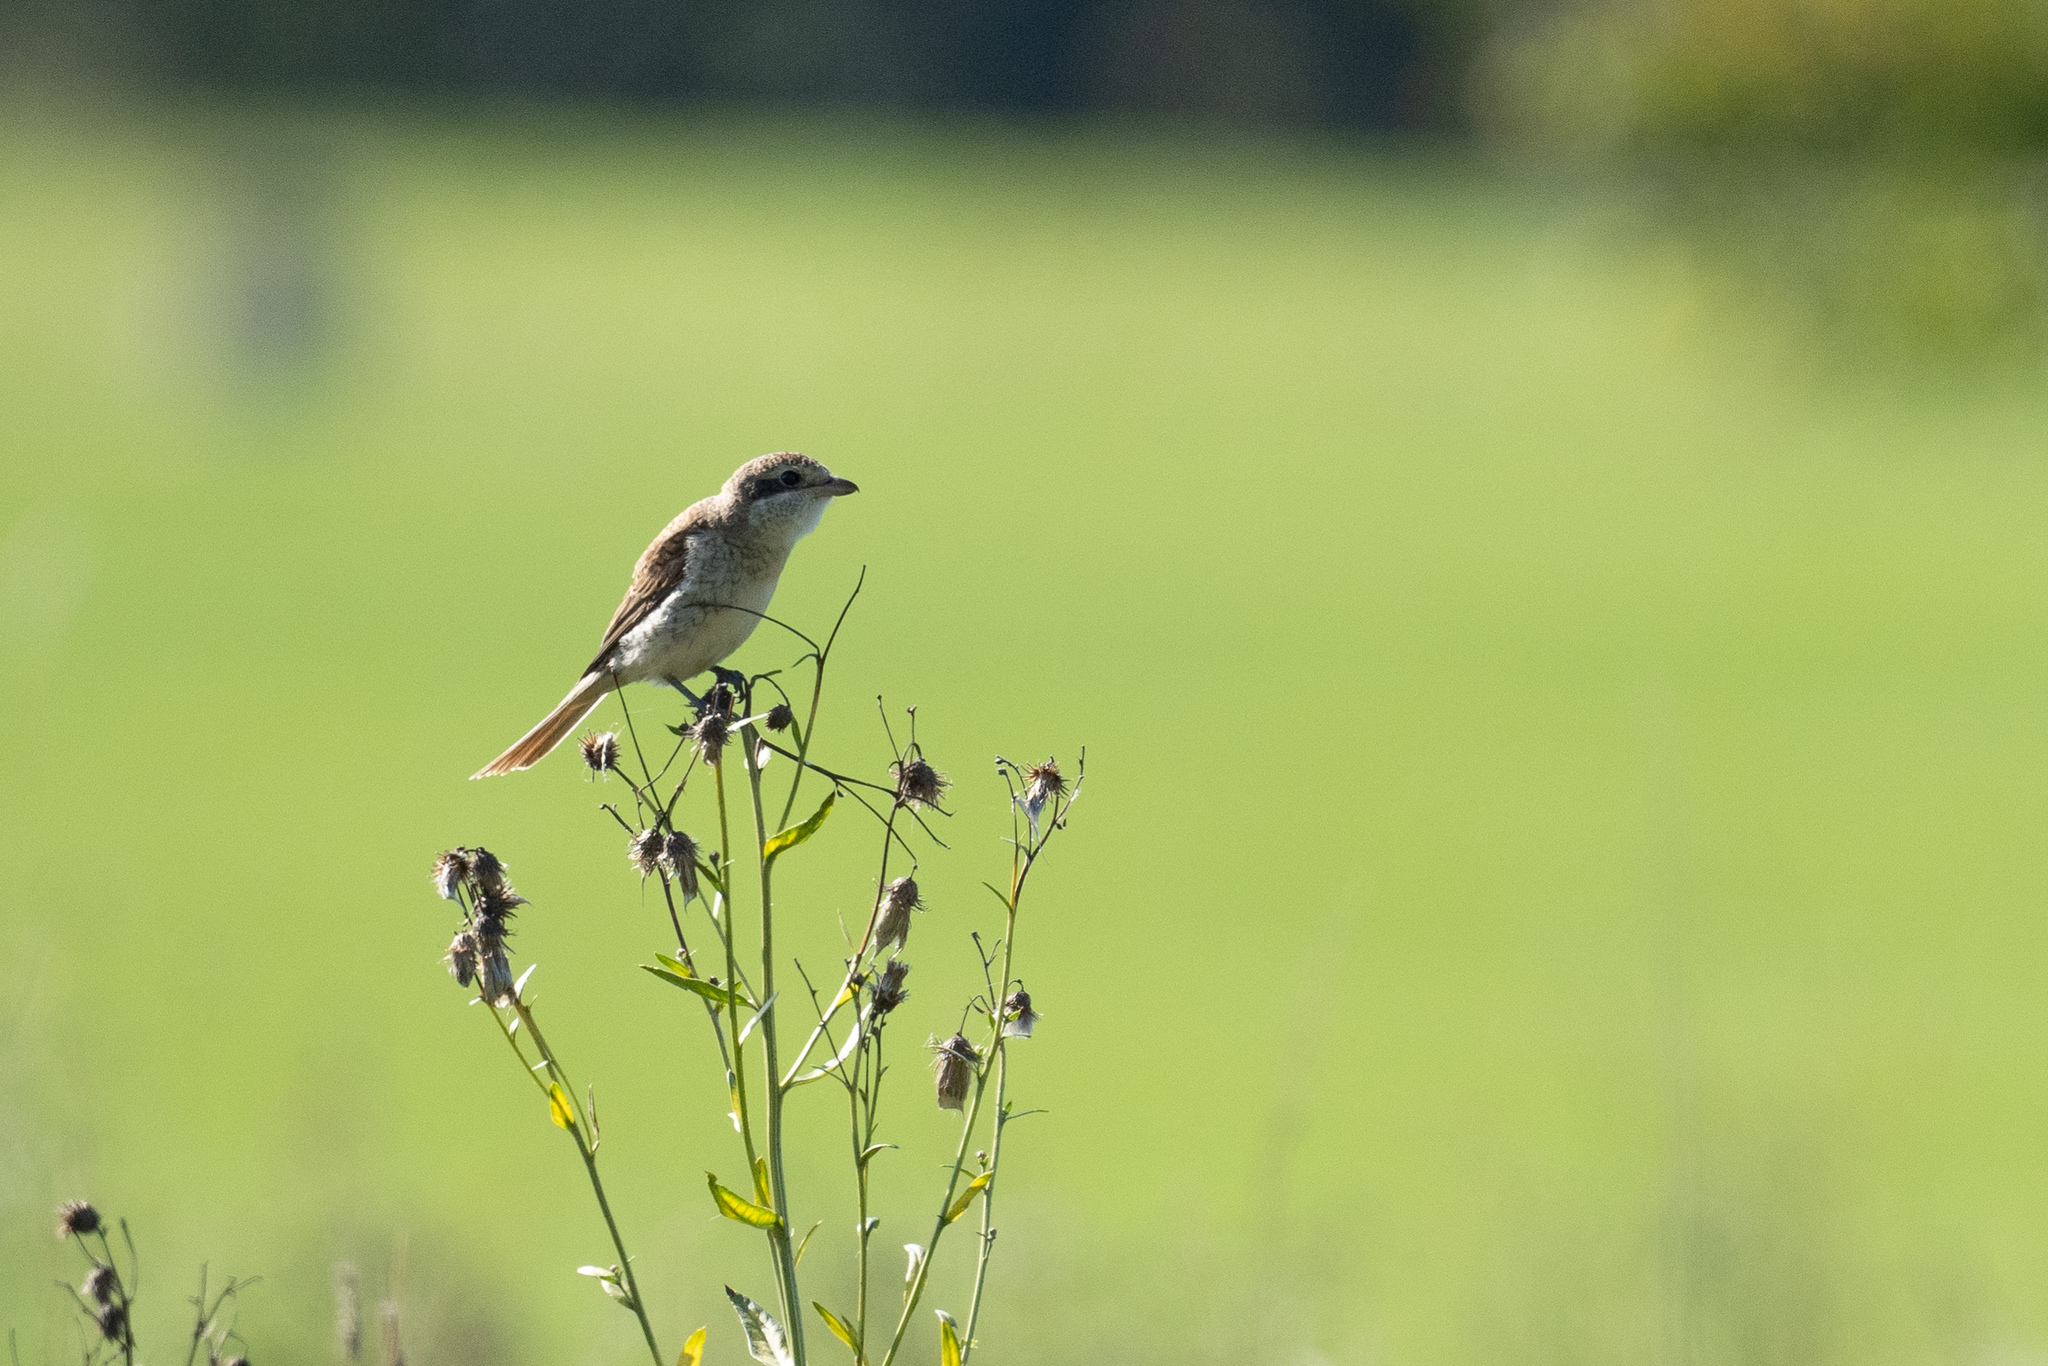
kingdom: Animalia
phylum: Chordata
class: Aves
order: Passeriformes
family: Laniidae
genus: Lanius
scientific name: Lanius collurio
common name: Red-backed shrike
